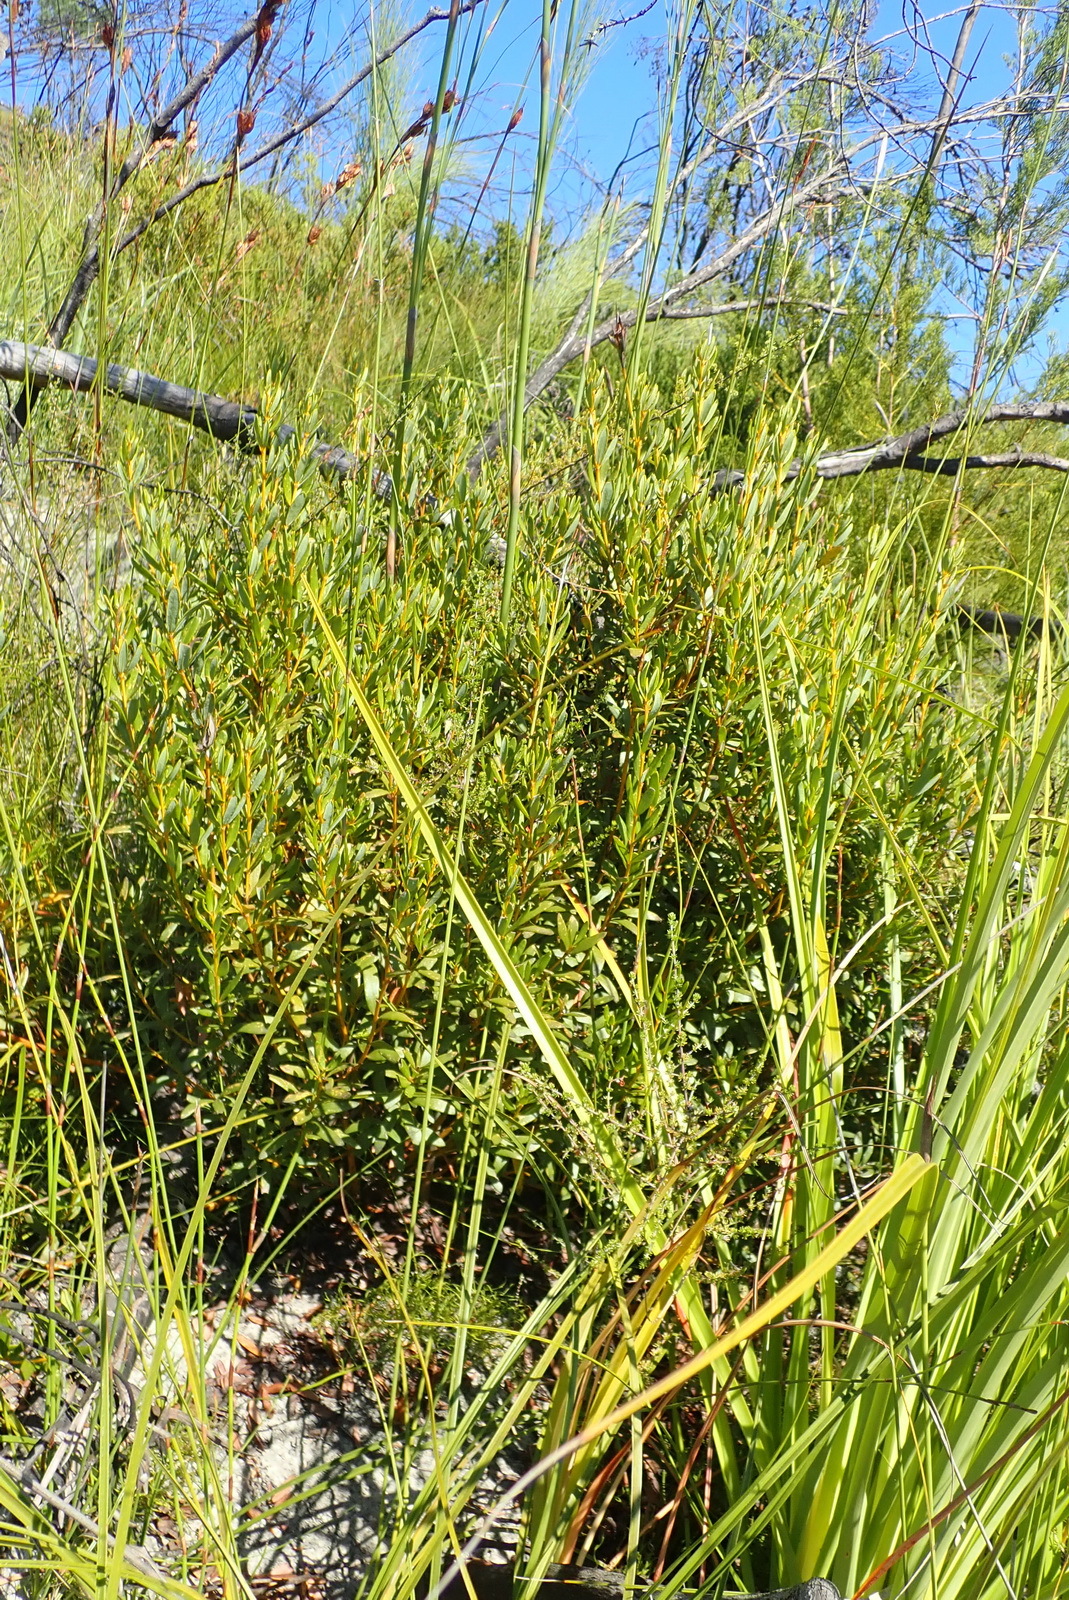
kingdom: Plantae
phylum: Tracheophyta
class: Magnoliopsida
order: Fabales
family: Fabaceae
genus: Cyclopia
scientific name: Cyclopia subternata
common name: Honeybush tea
